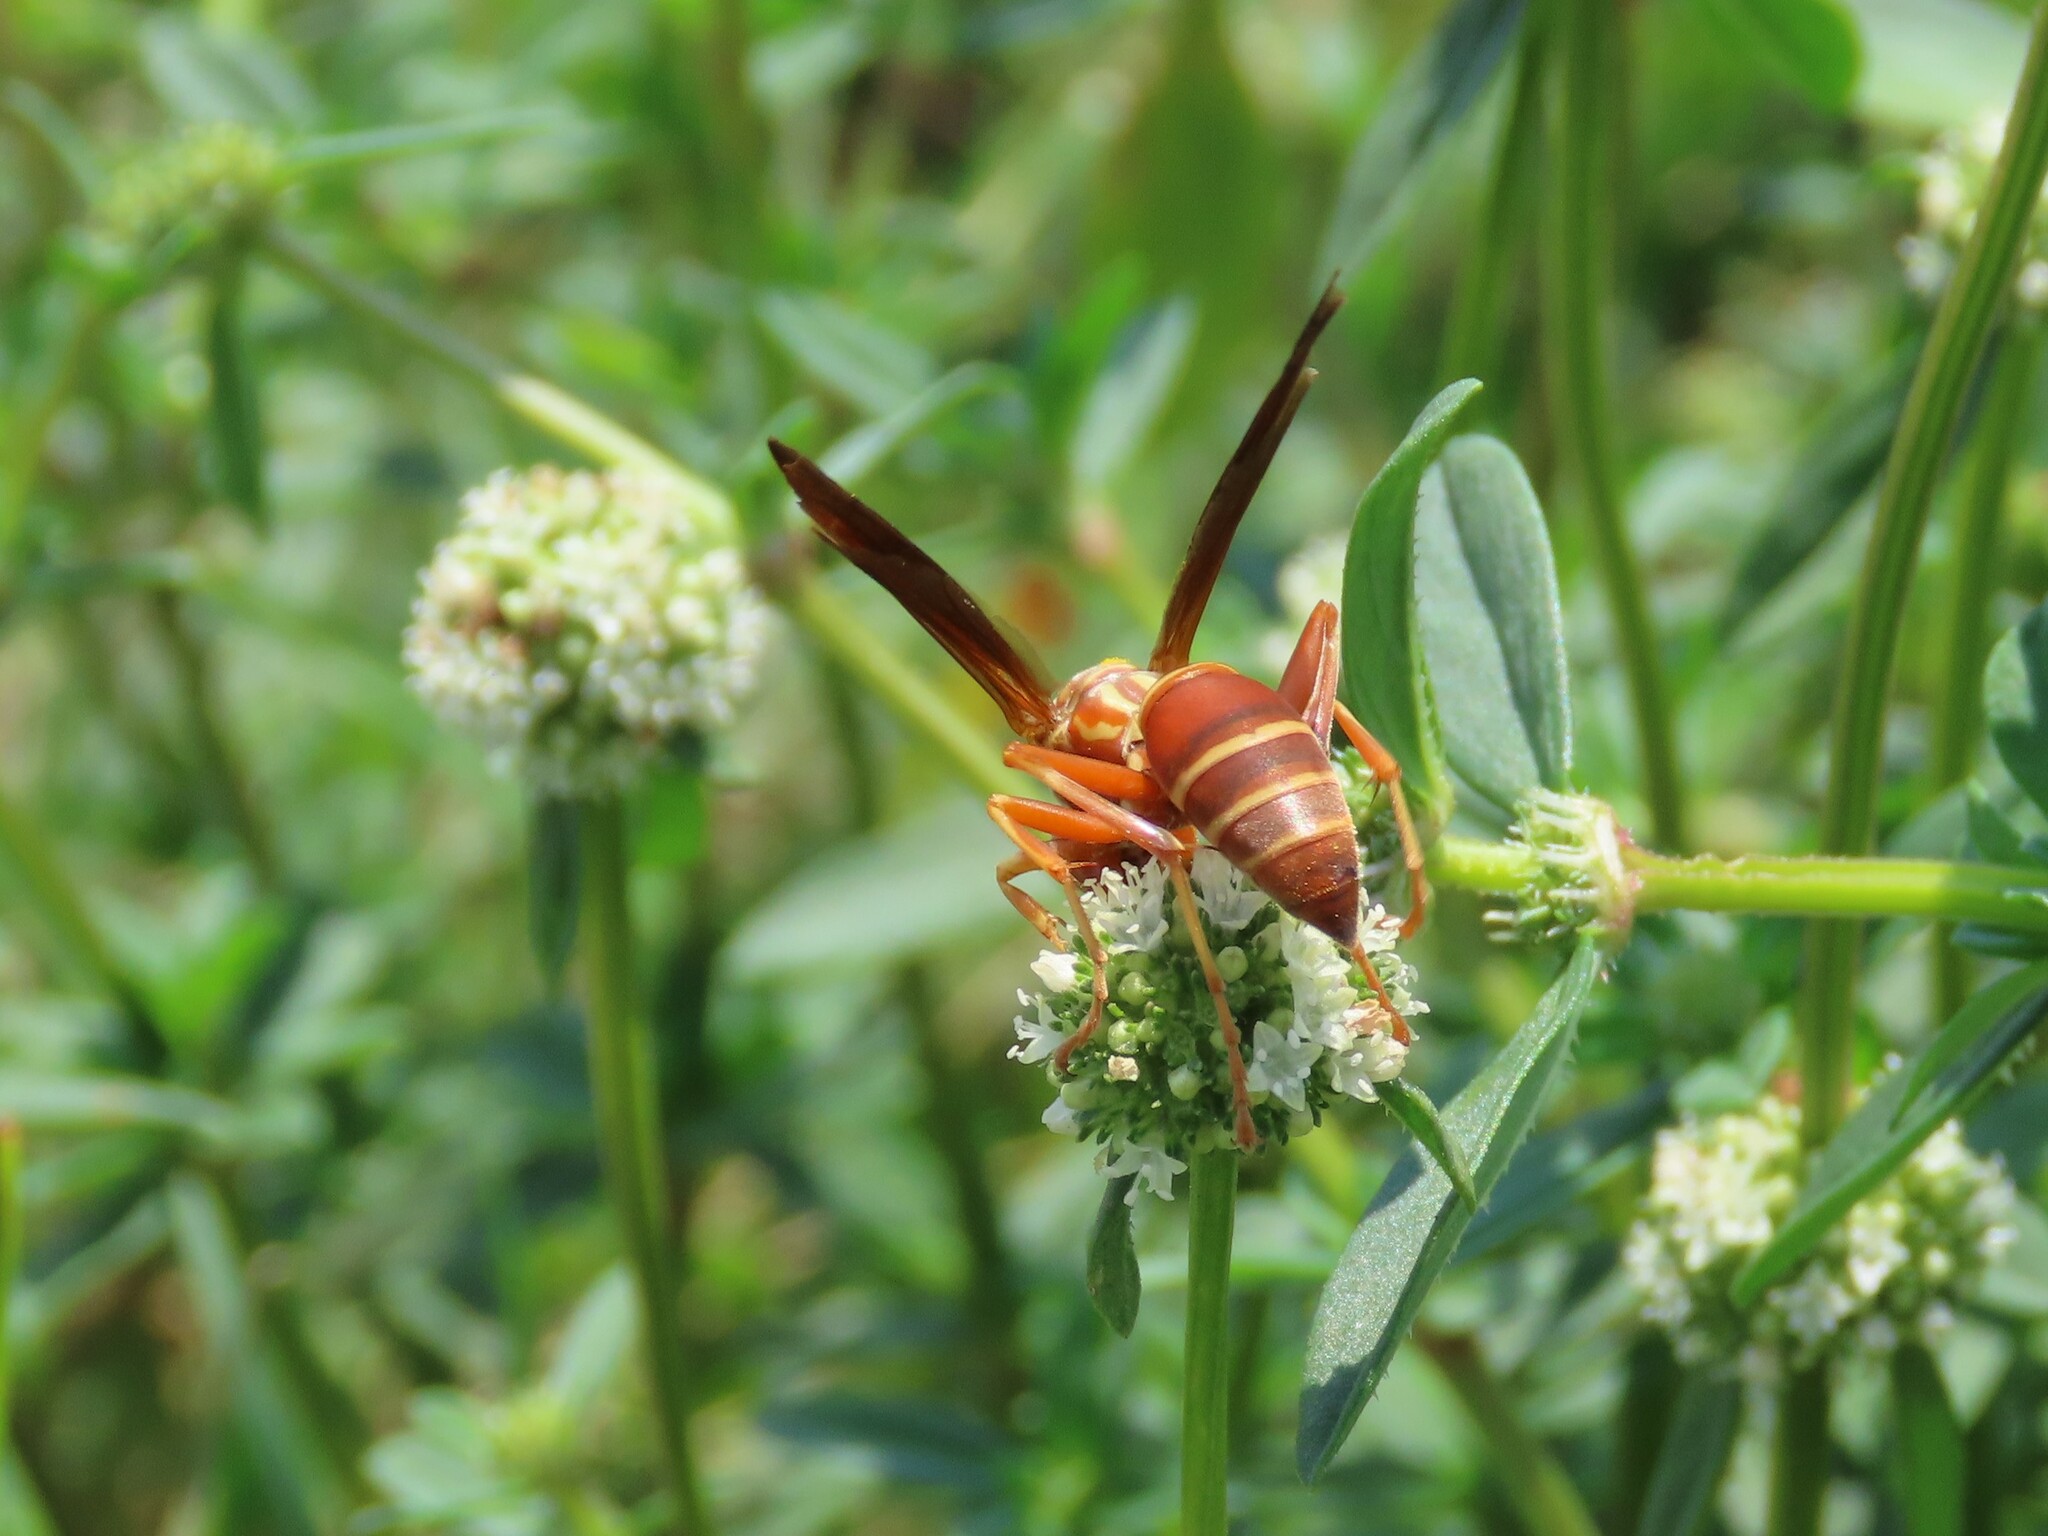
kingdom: Animalia
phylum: Arthropoda
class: Insecta
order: Hymenoptera
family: Eumenidae
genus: Polistes
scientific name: Polistes bellicosus
